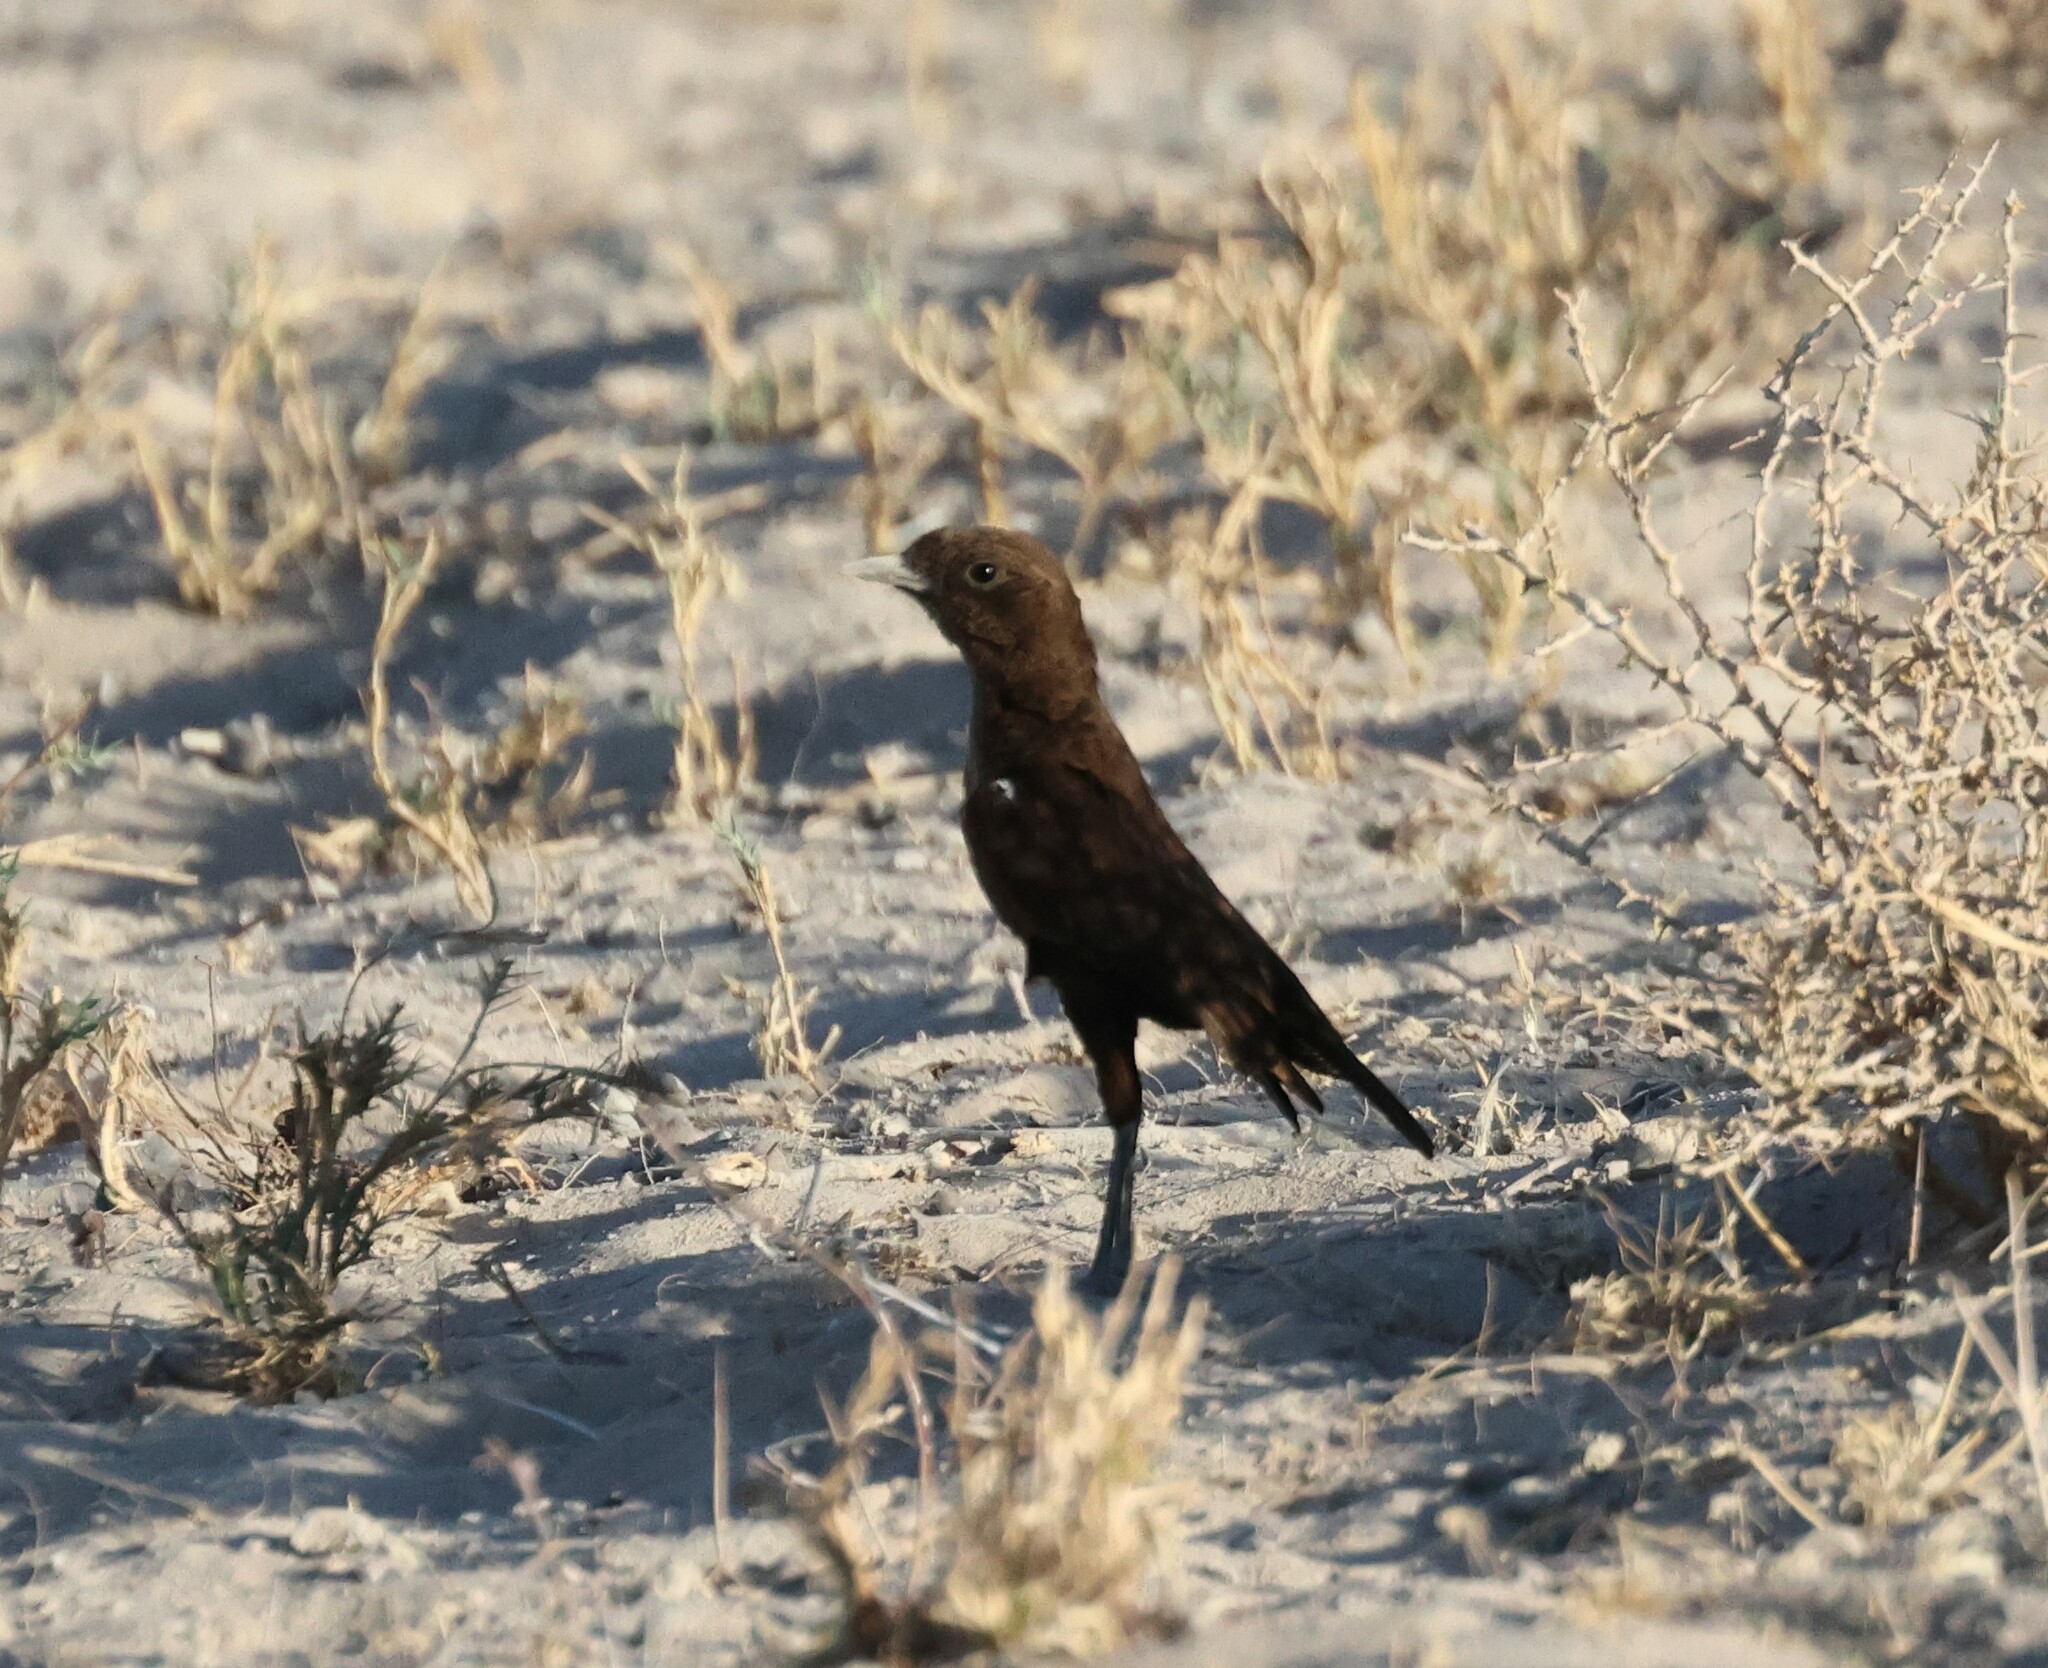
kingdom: Animalia
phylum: Chordata
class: Aves
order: Passeriformes
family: Muscicapidae
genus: Myrmecocichla
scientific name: Myrmecocichla formicivora
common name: Ant-eating chat
